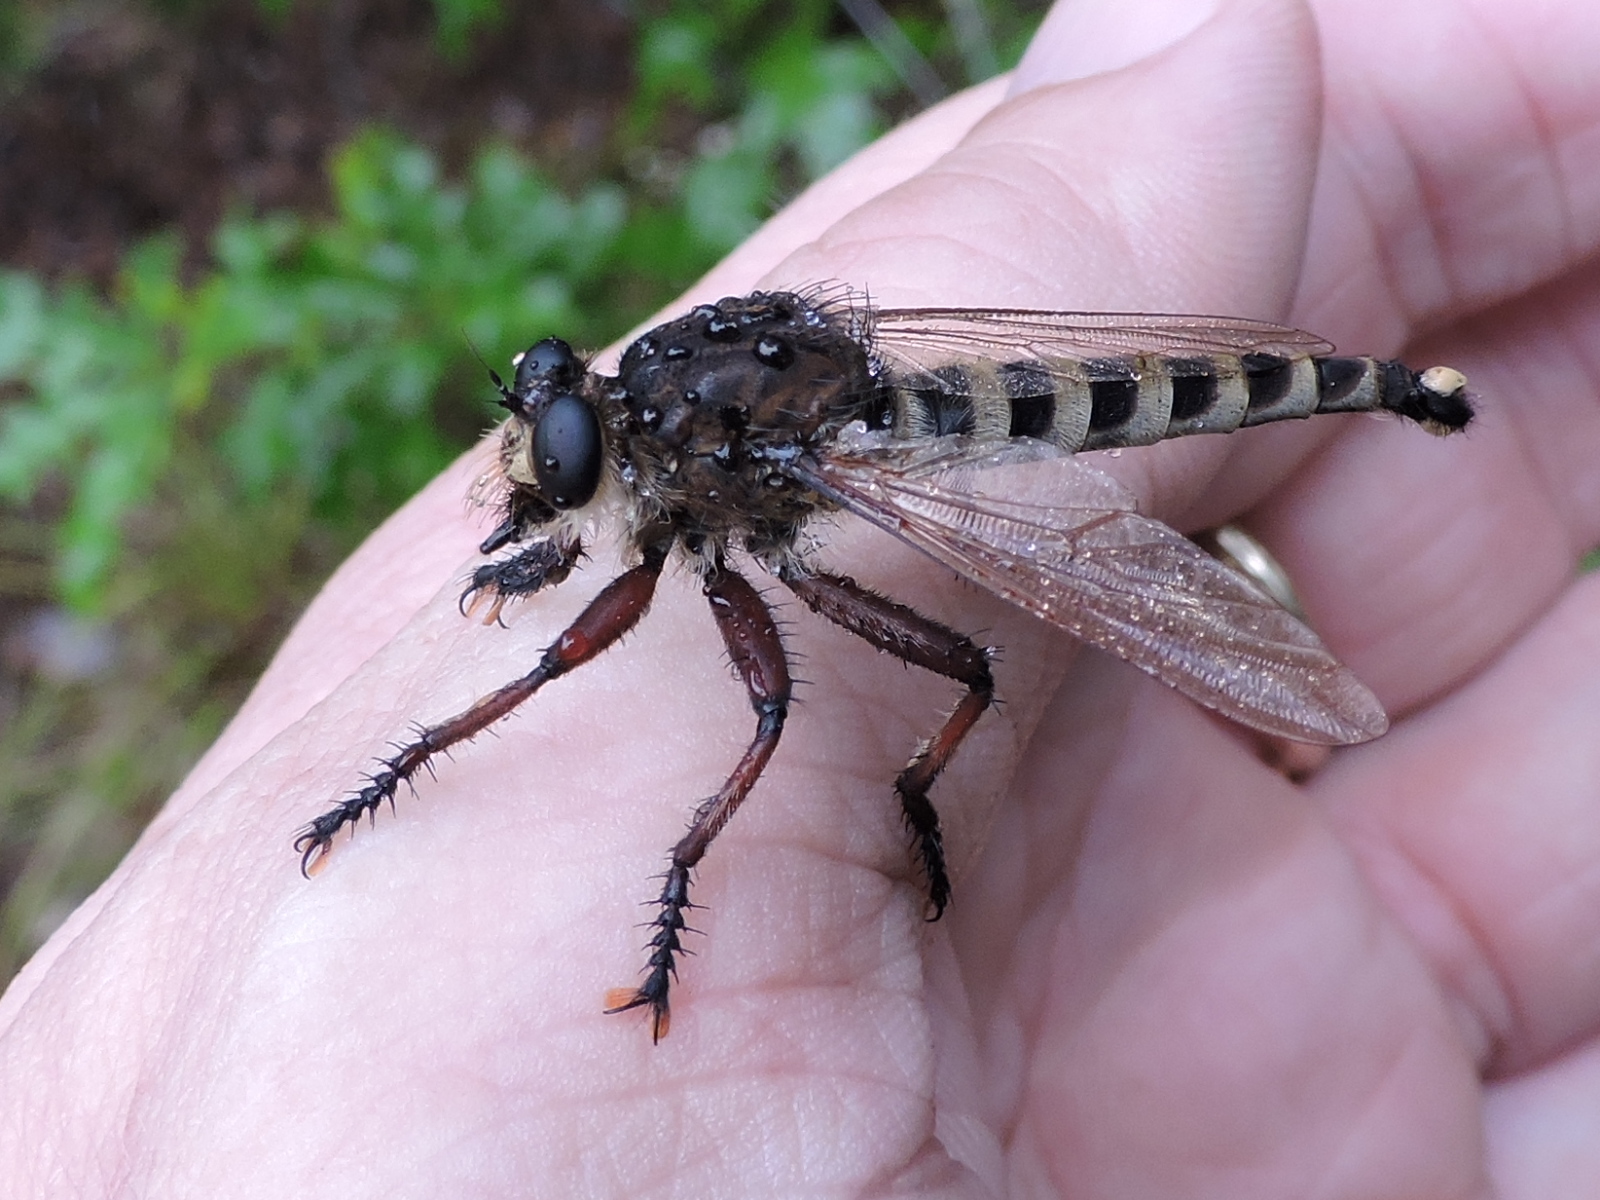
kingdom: Animalia
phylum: Arthropoda
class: Insecta
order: Diptera
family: Asilidae
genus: Promachus
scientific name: Promachus hinei
